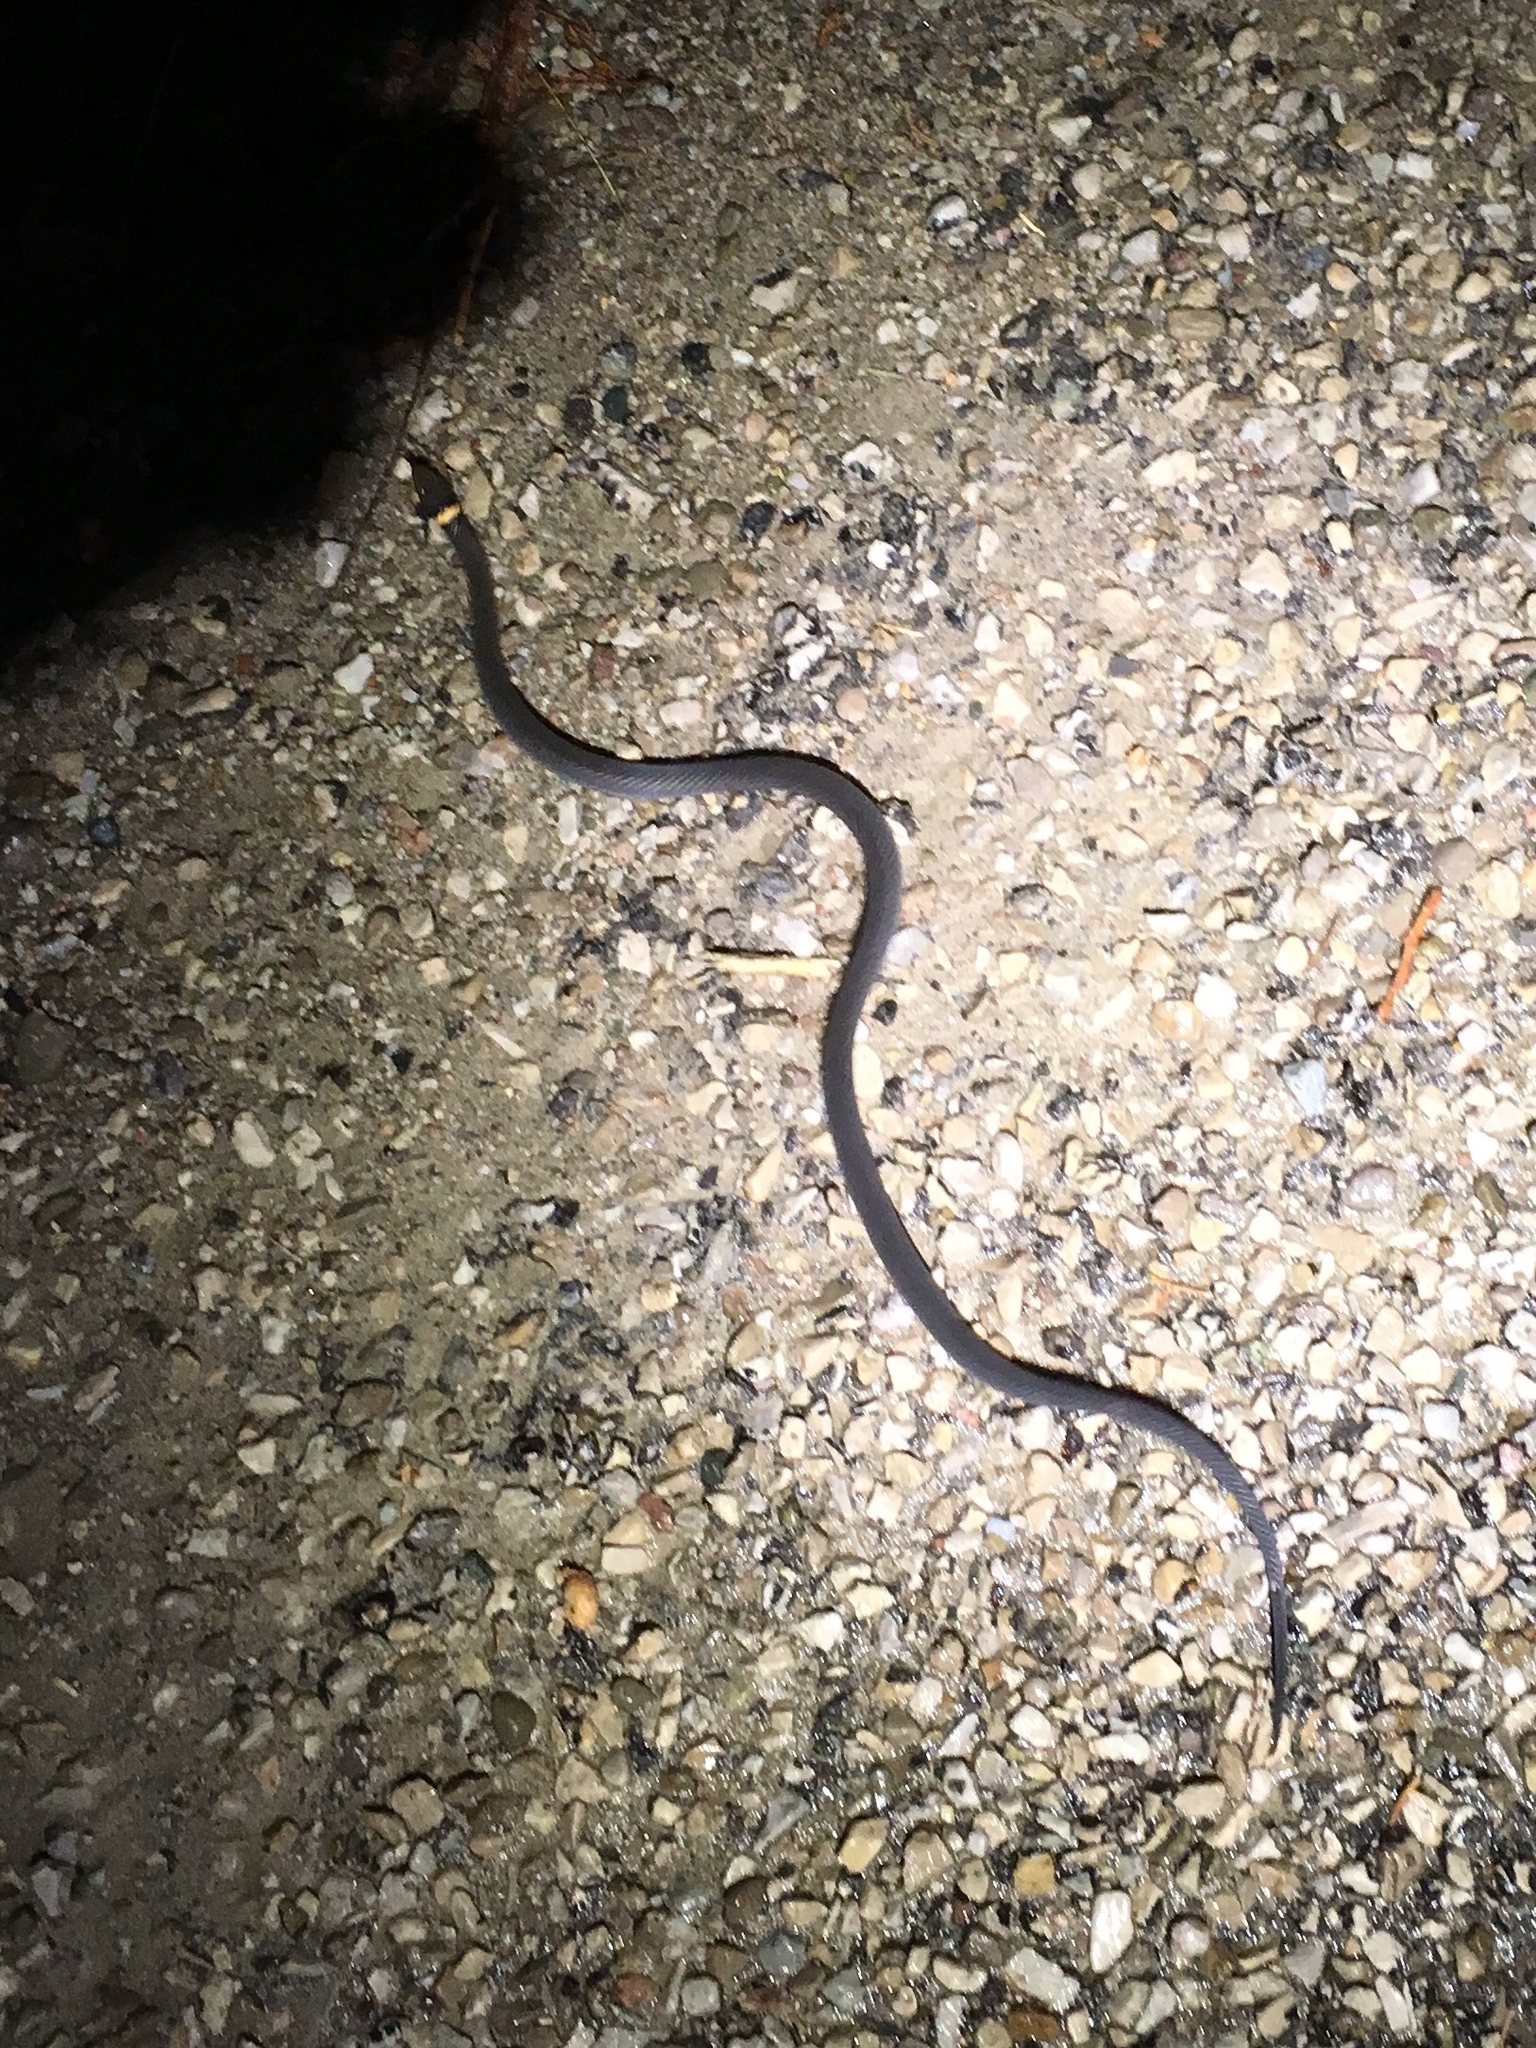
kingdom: Animalia
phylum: Chordata
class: Squamata
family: Colubridae
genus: Diadophis
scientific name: Diadophis punctatus
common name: Ringneck snake
